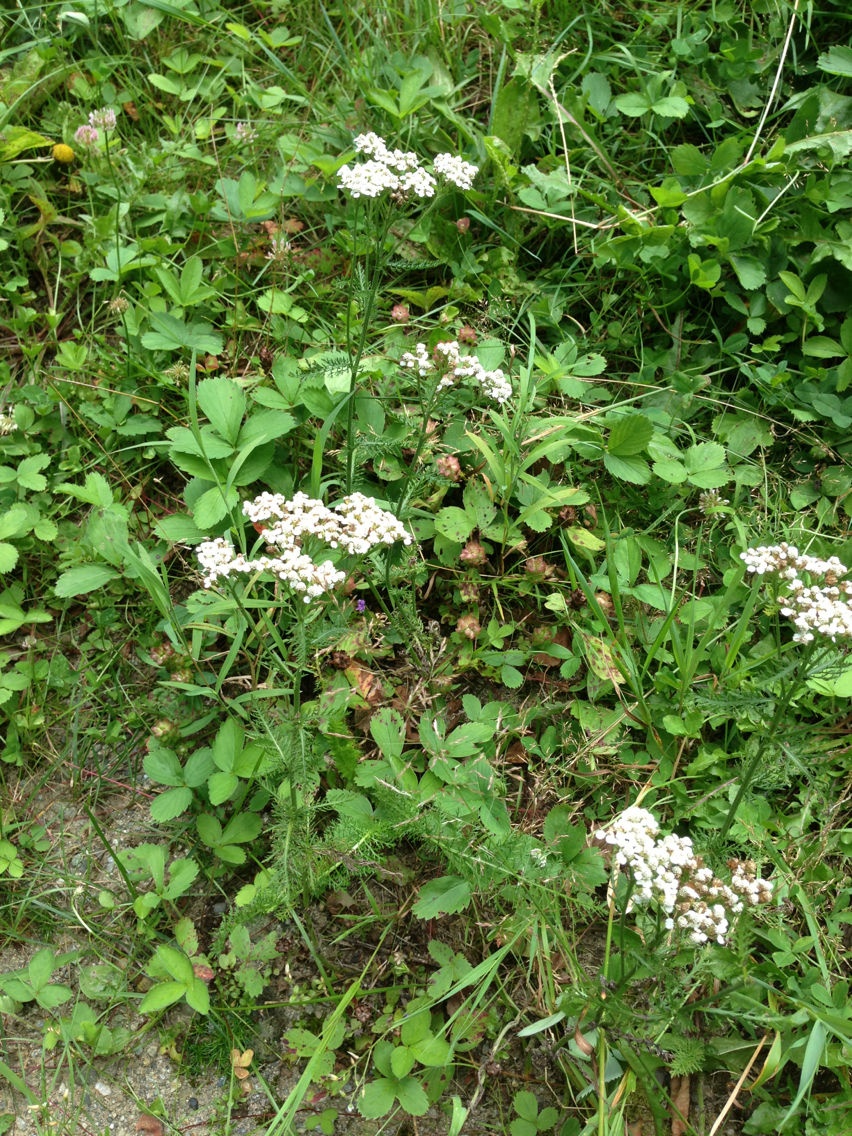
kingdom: Plantae
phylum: Tracheophyta
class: Magnoliopsida
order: Asterales
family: Asteraceae
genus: Achillea
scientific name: Achillea millefolium
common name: Yarrow
